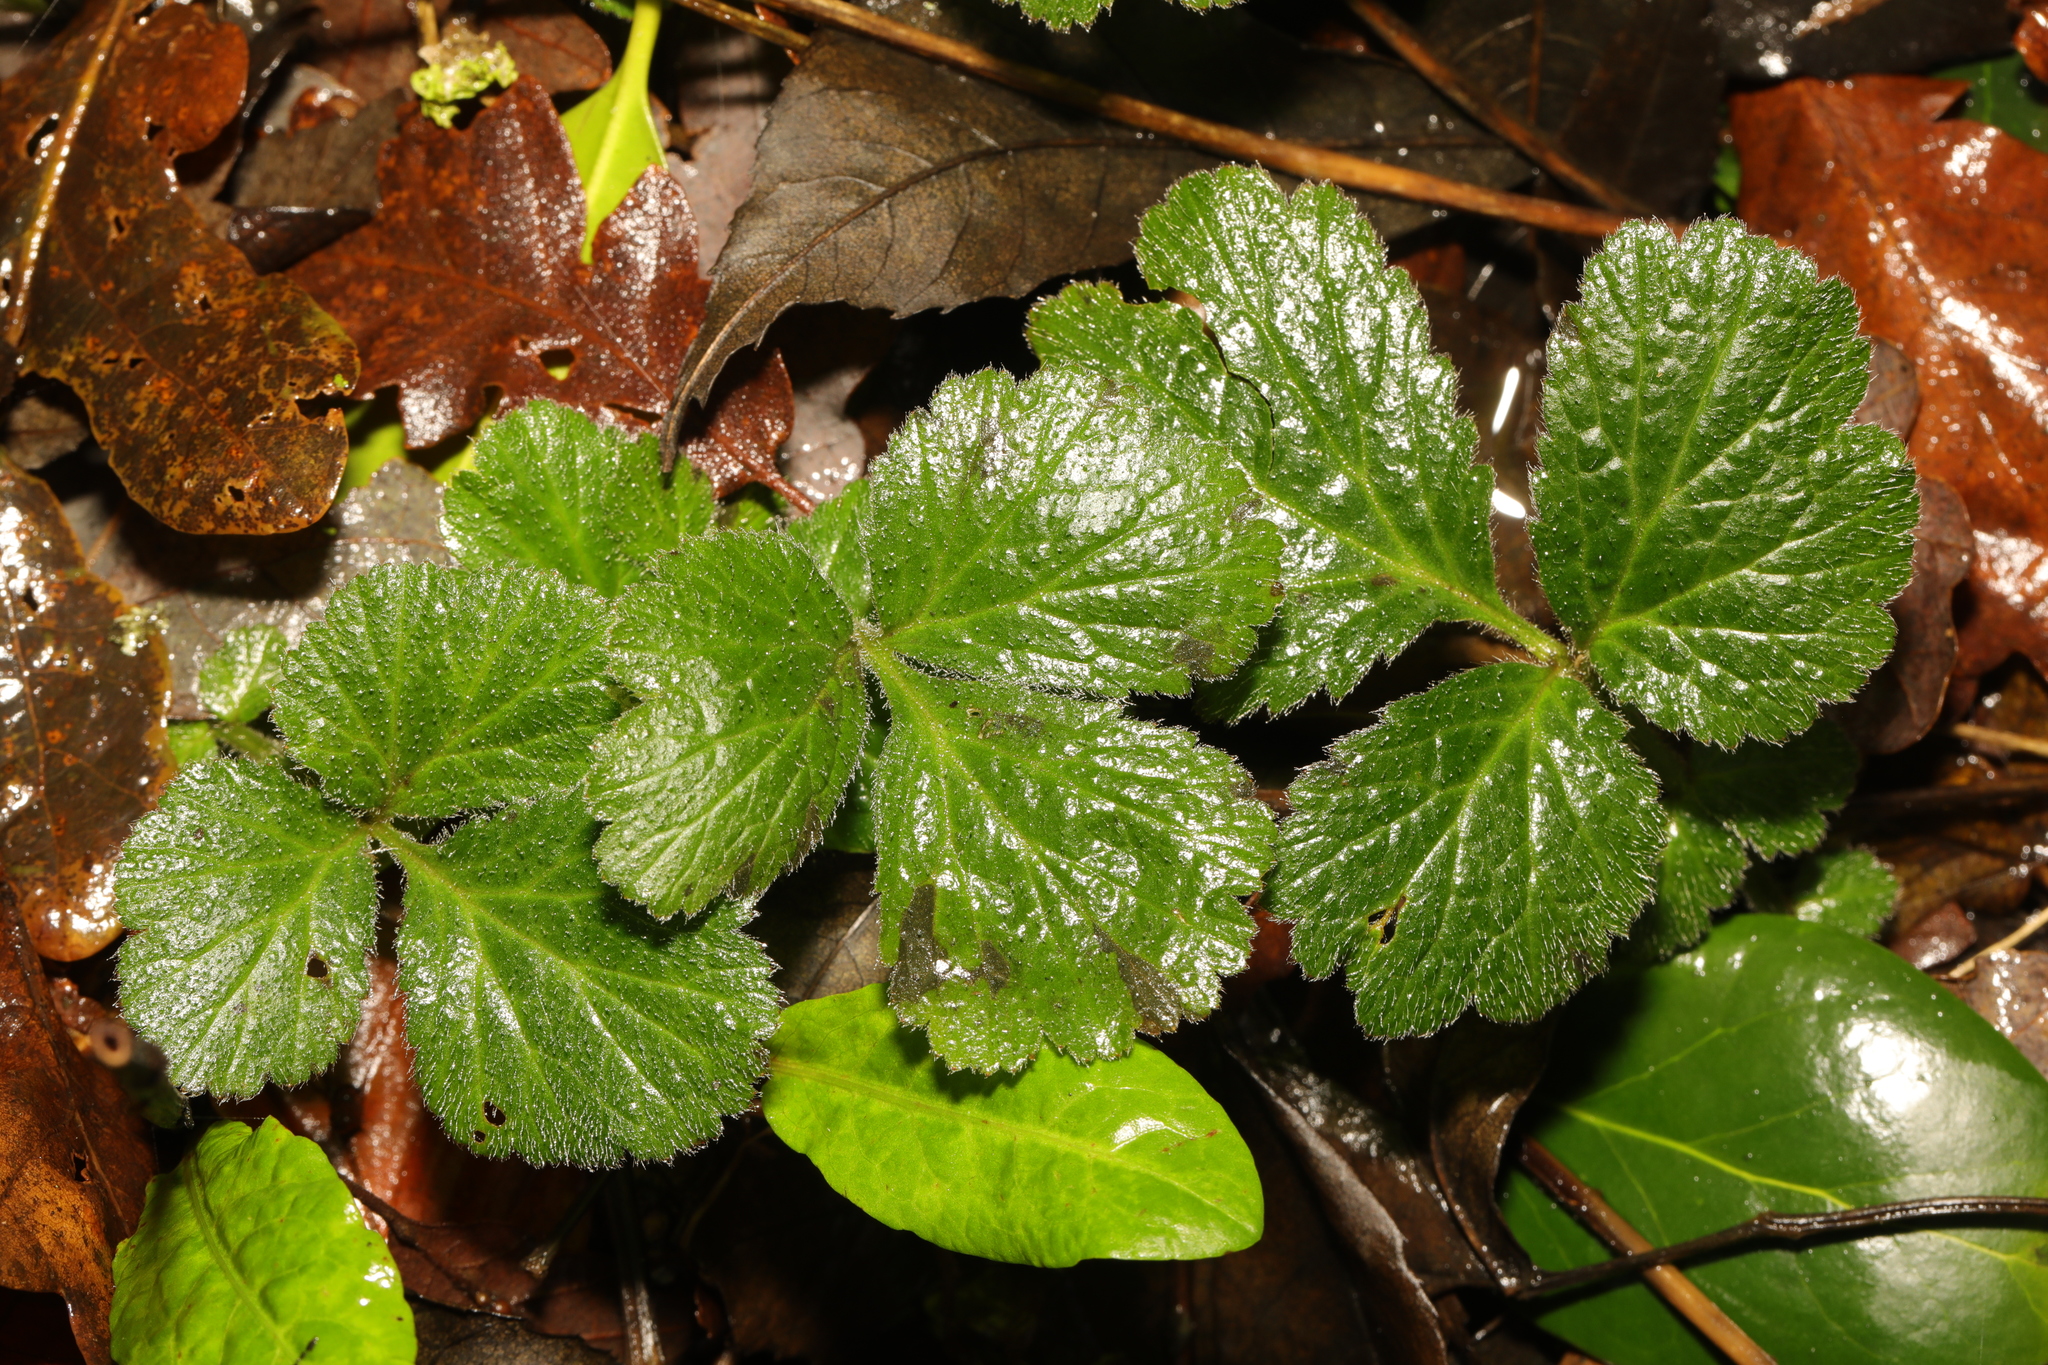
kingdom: Plantae
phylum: Tracheophyta
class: Magnoliopsida
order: Rosales
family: Rosaceae
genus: Geum
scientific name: Geum urbanum
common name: Wood avens
